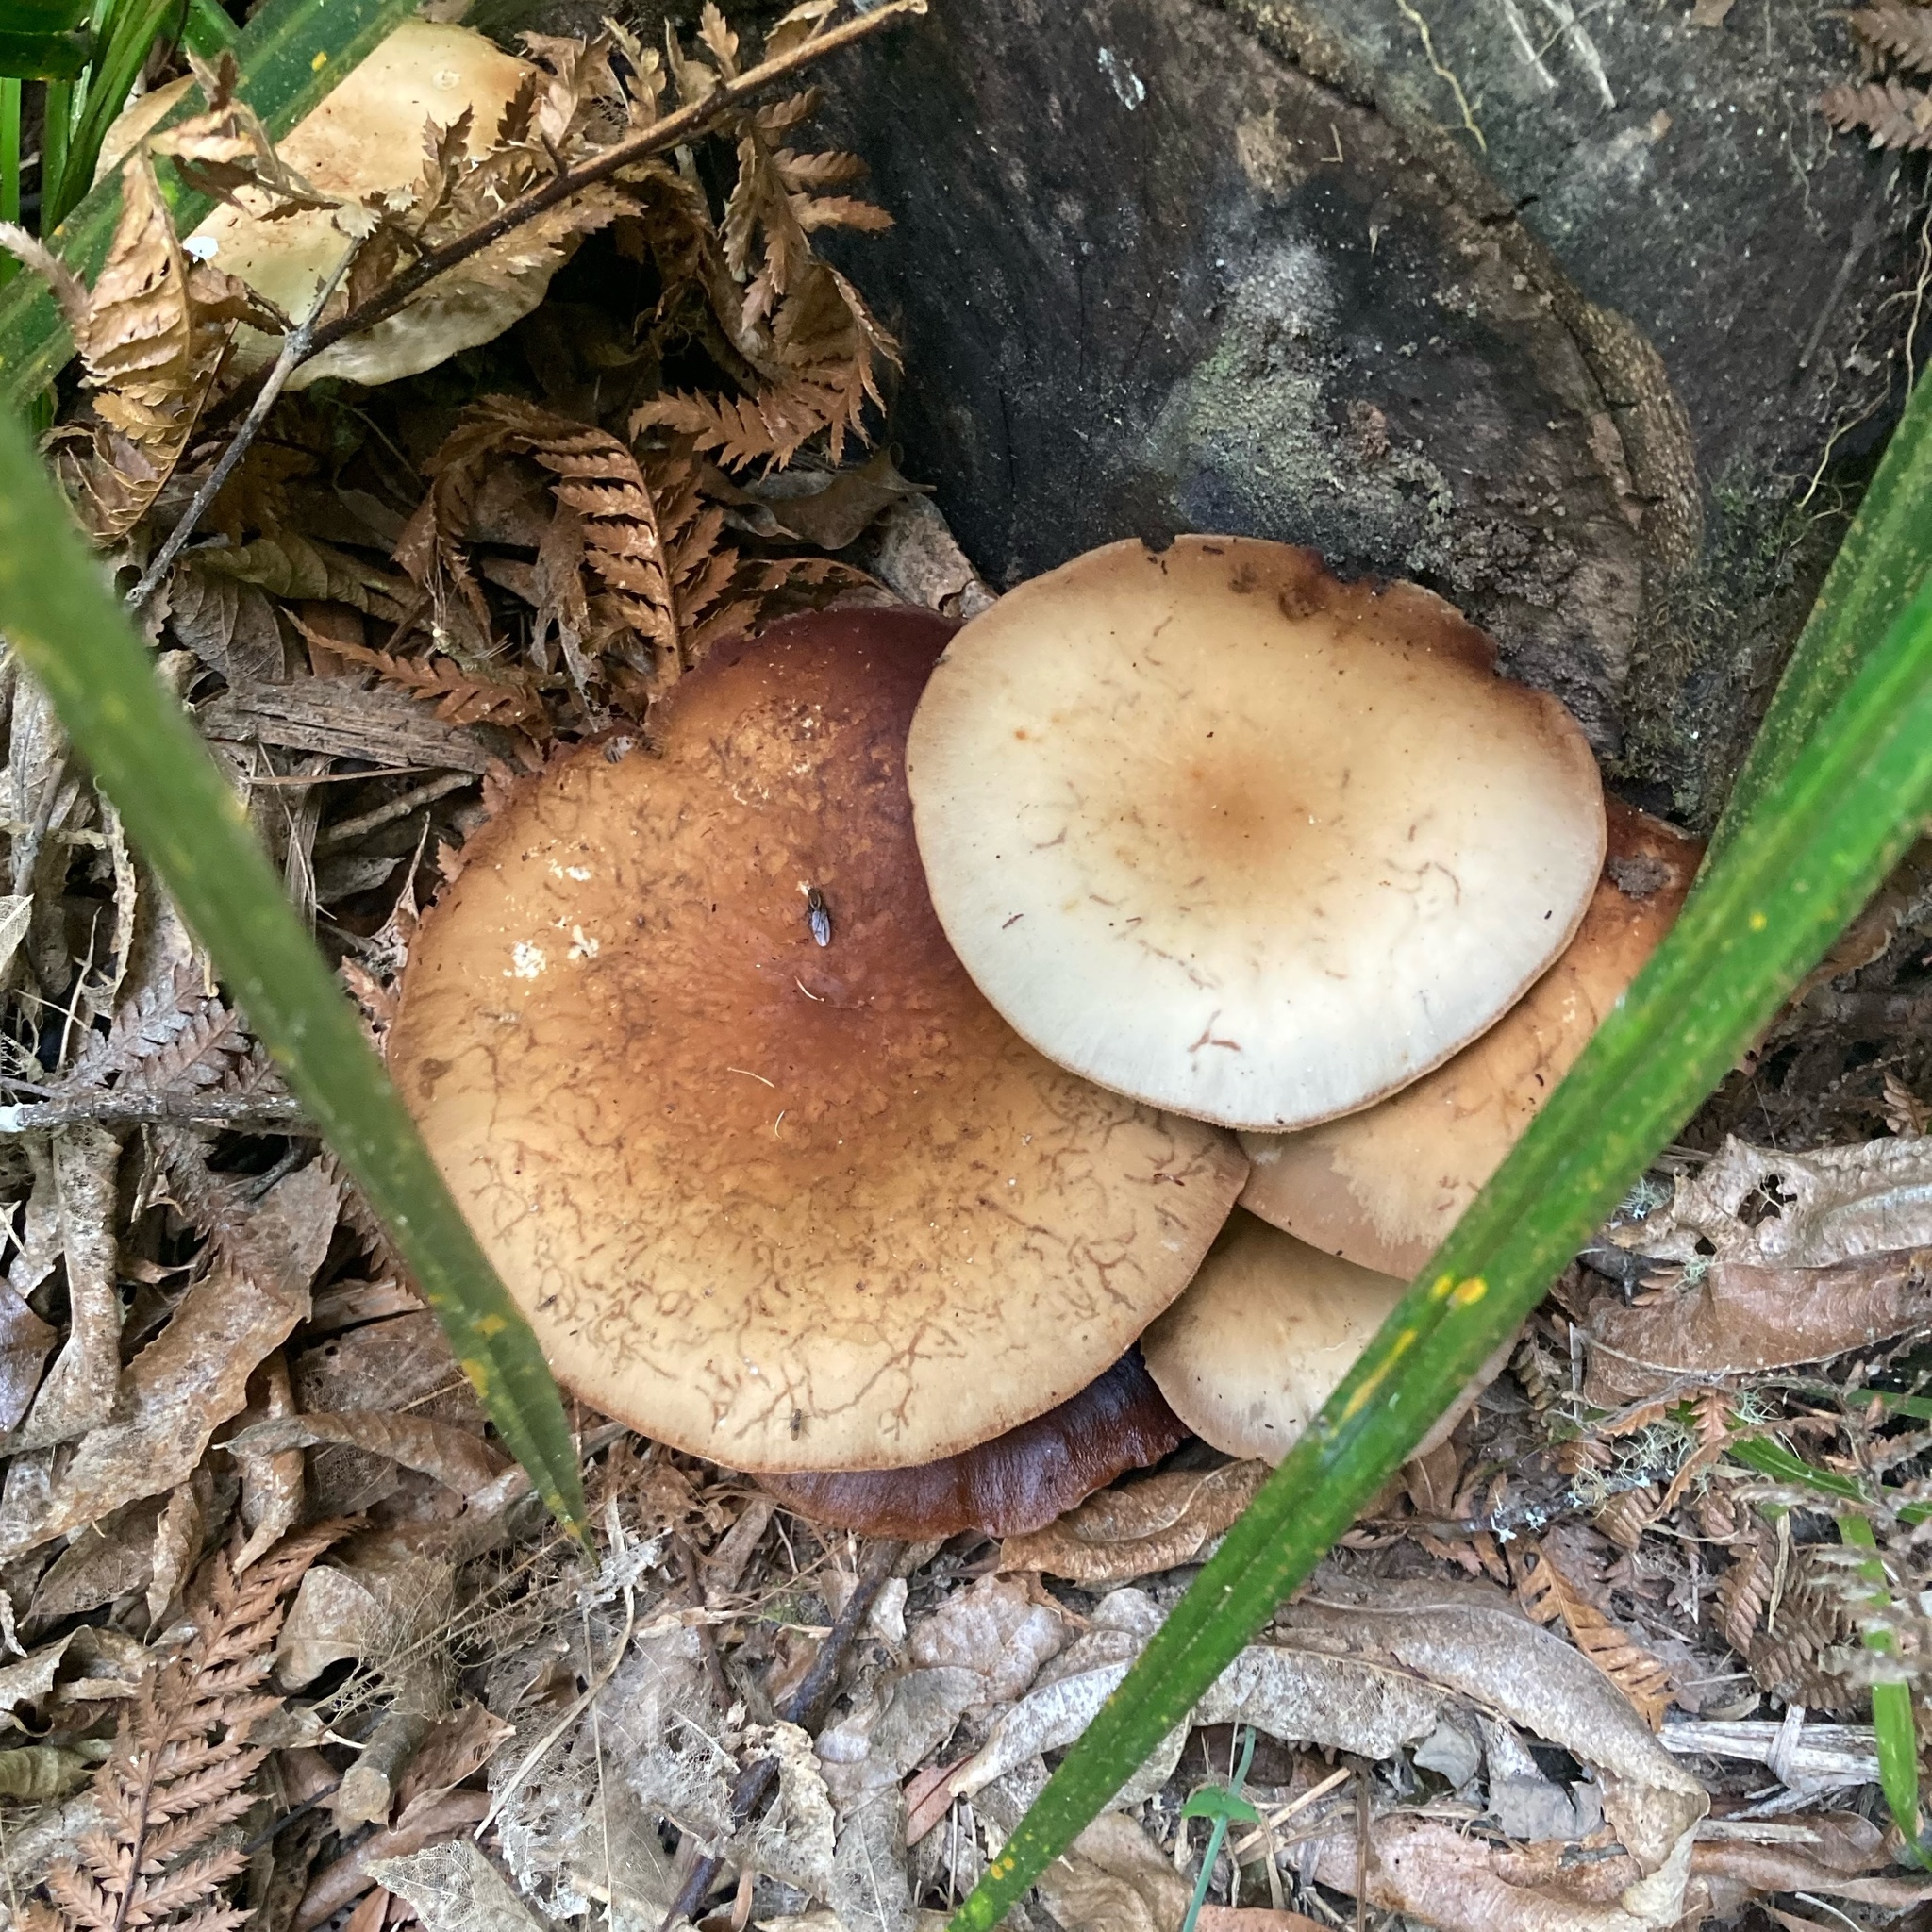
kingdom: Fungi
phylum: Basidiomycota
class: Agaricomycetes
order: Agaricales
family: Tubariaceae
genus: Cyclocybe
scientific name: Cyclocybe parasitica
